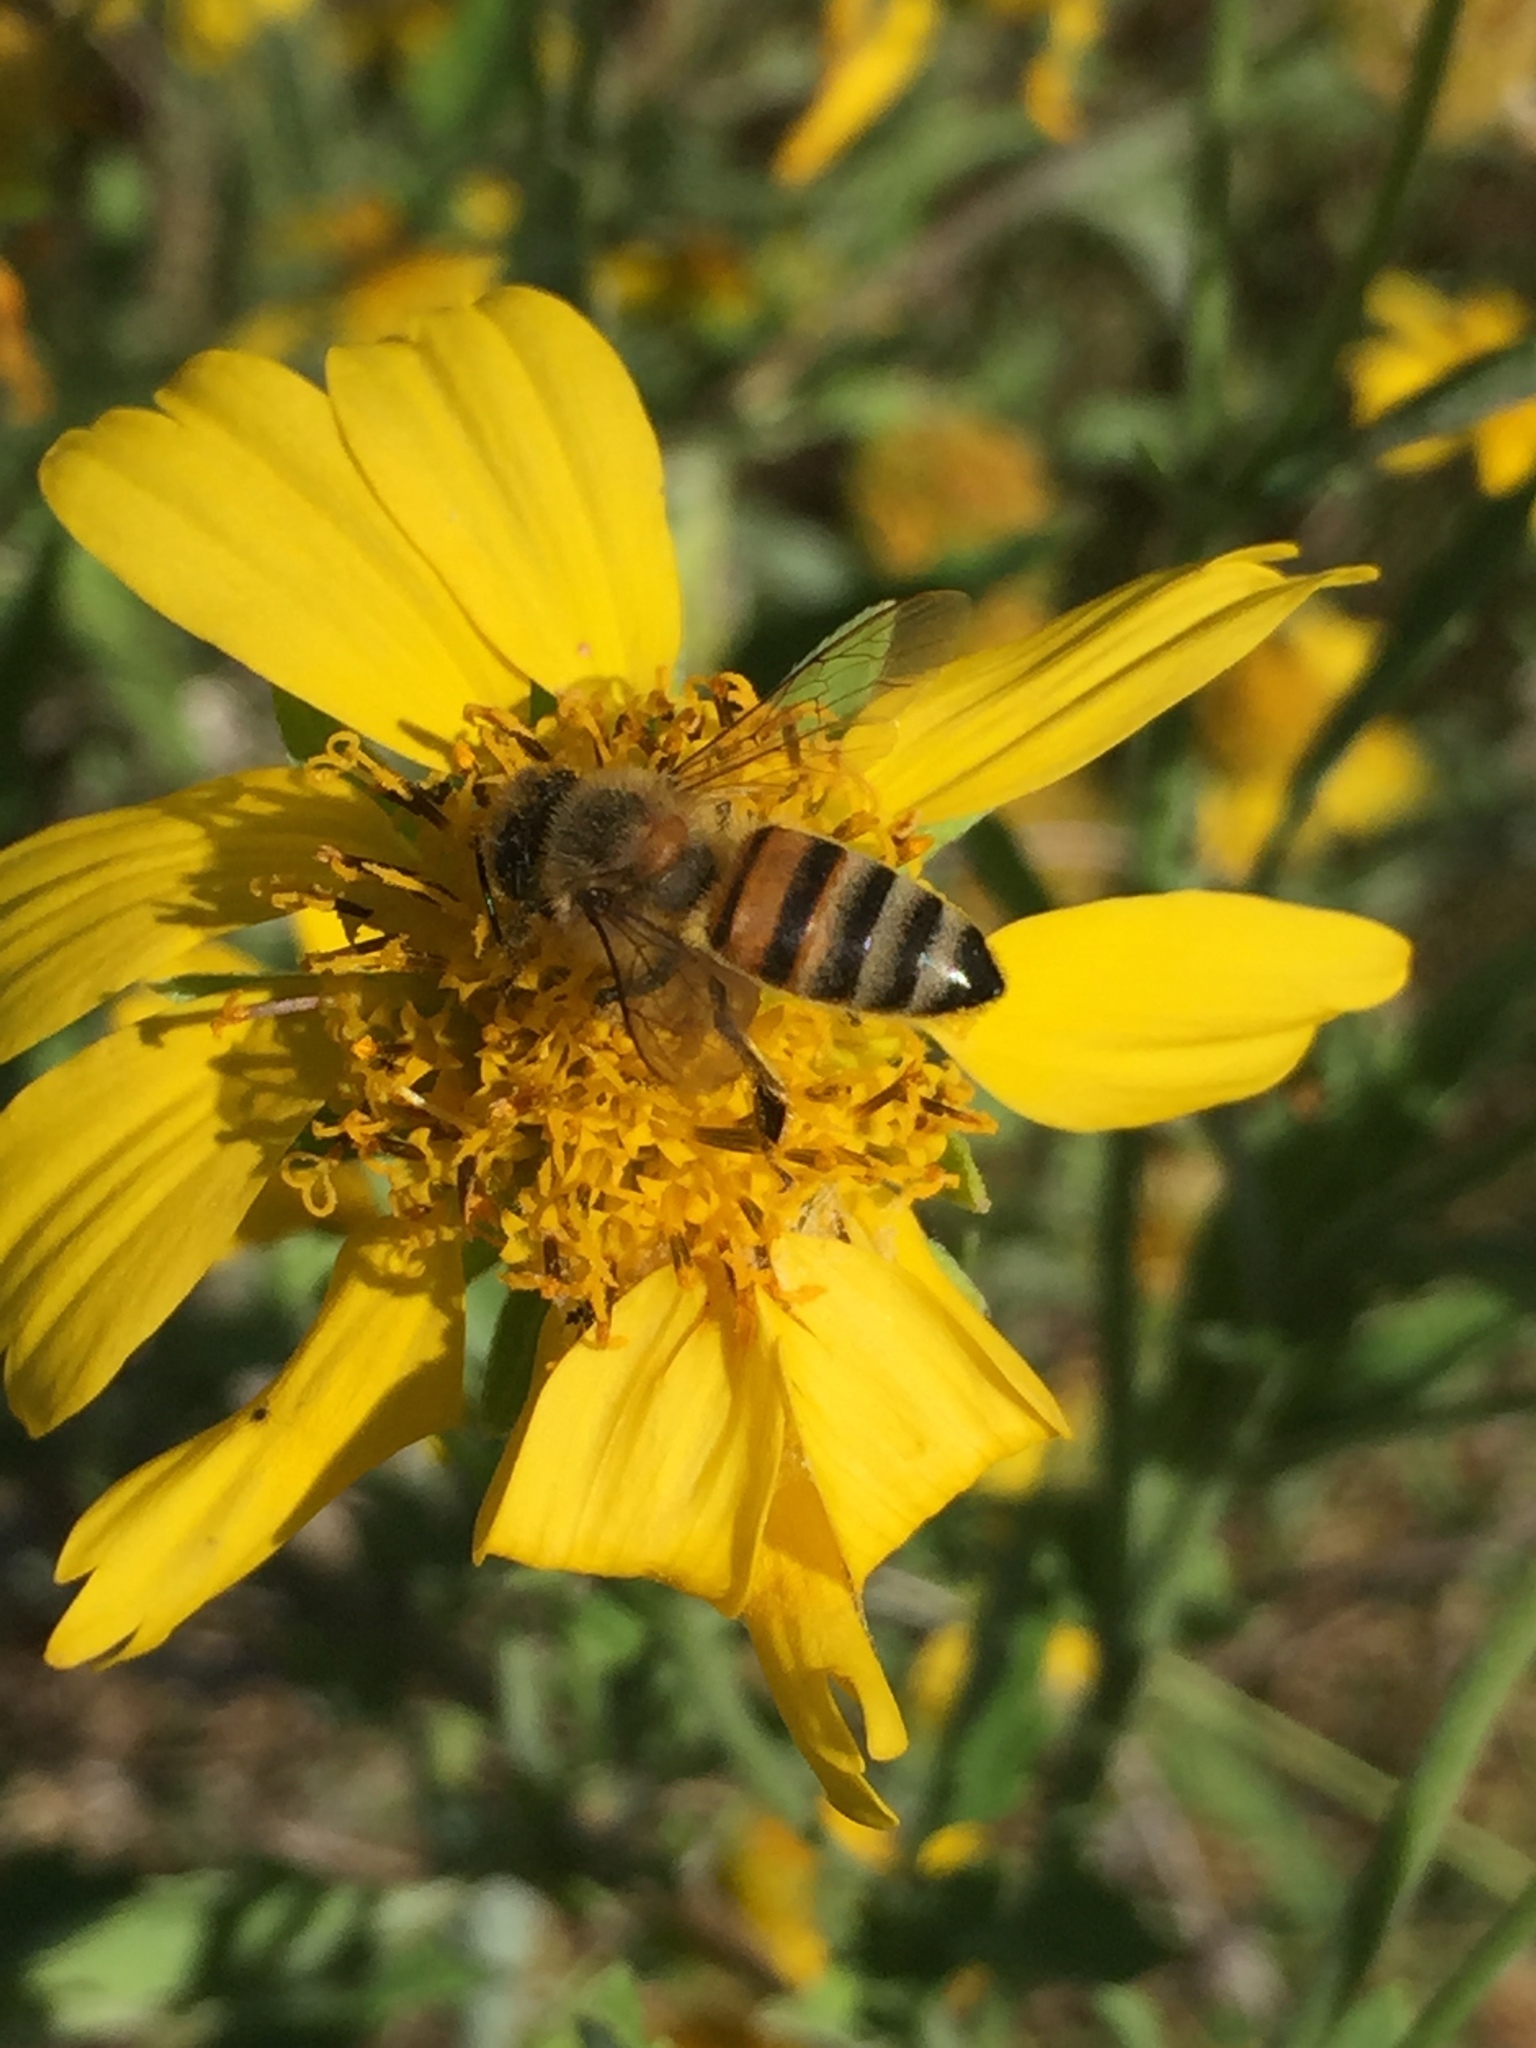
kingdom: Animalia
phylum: Arthropoda
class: Insecta
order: Hymenoptera
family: Apidae
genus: Apis
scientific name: Apis mellifera
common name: Honey bee
